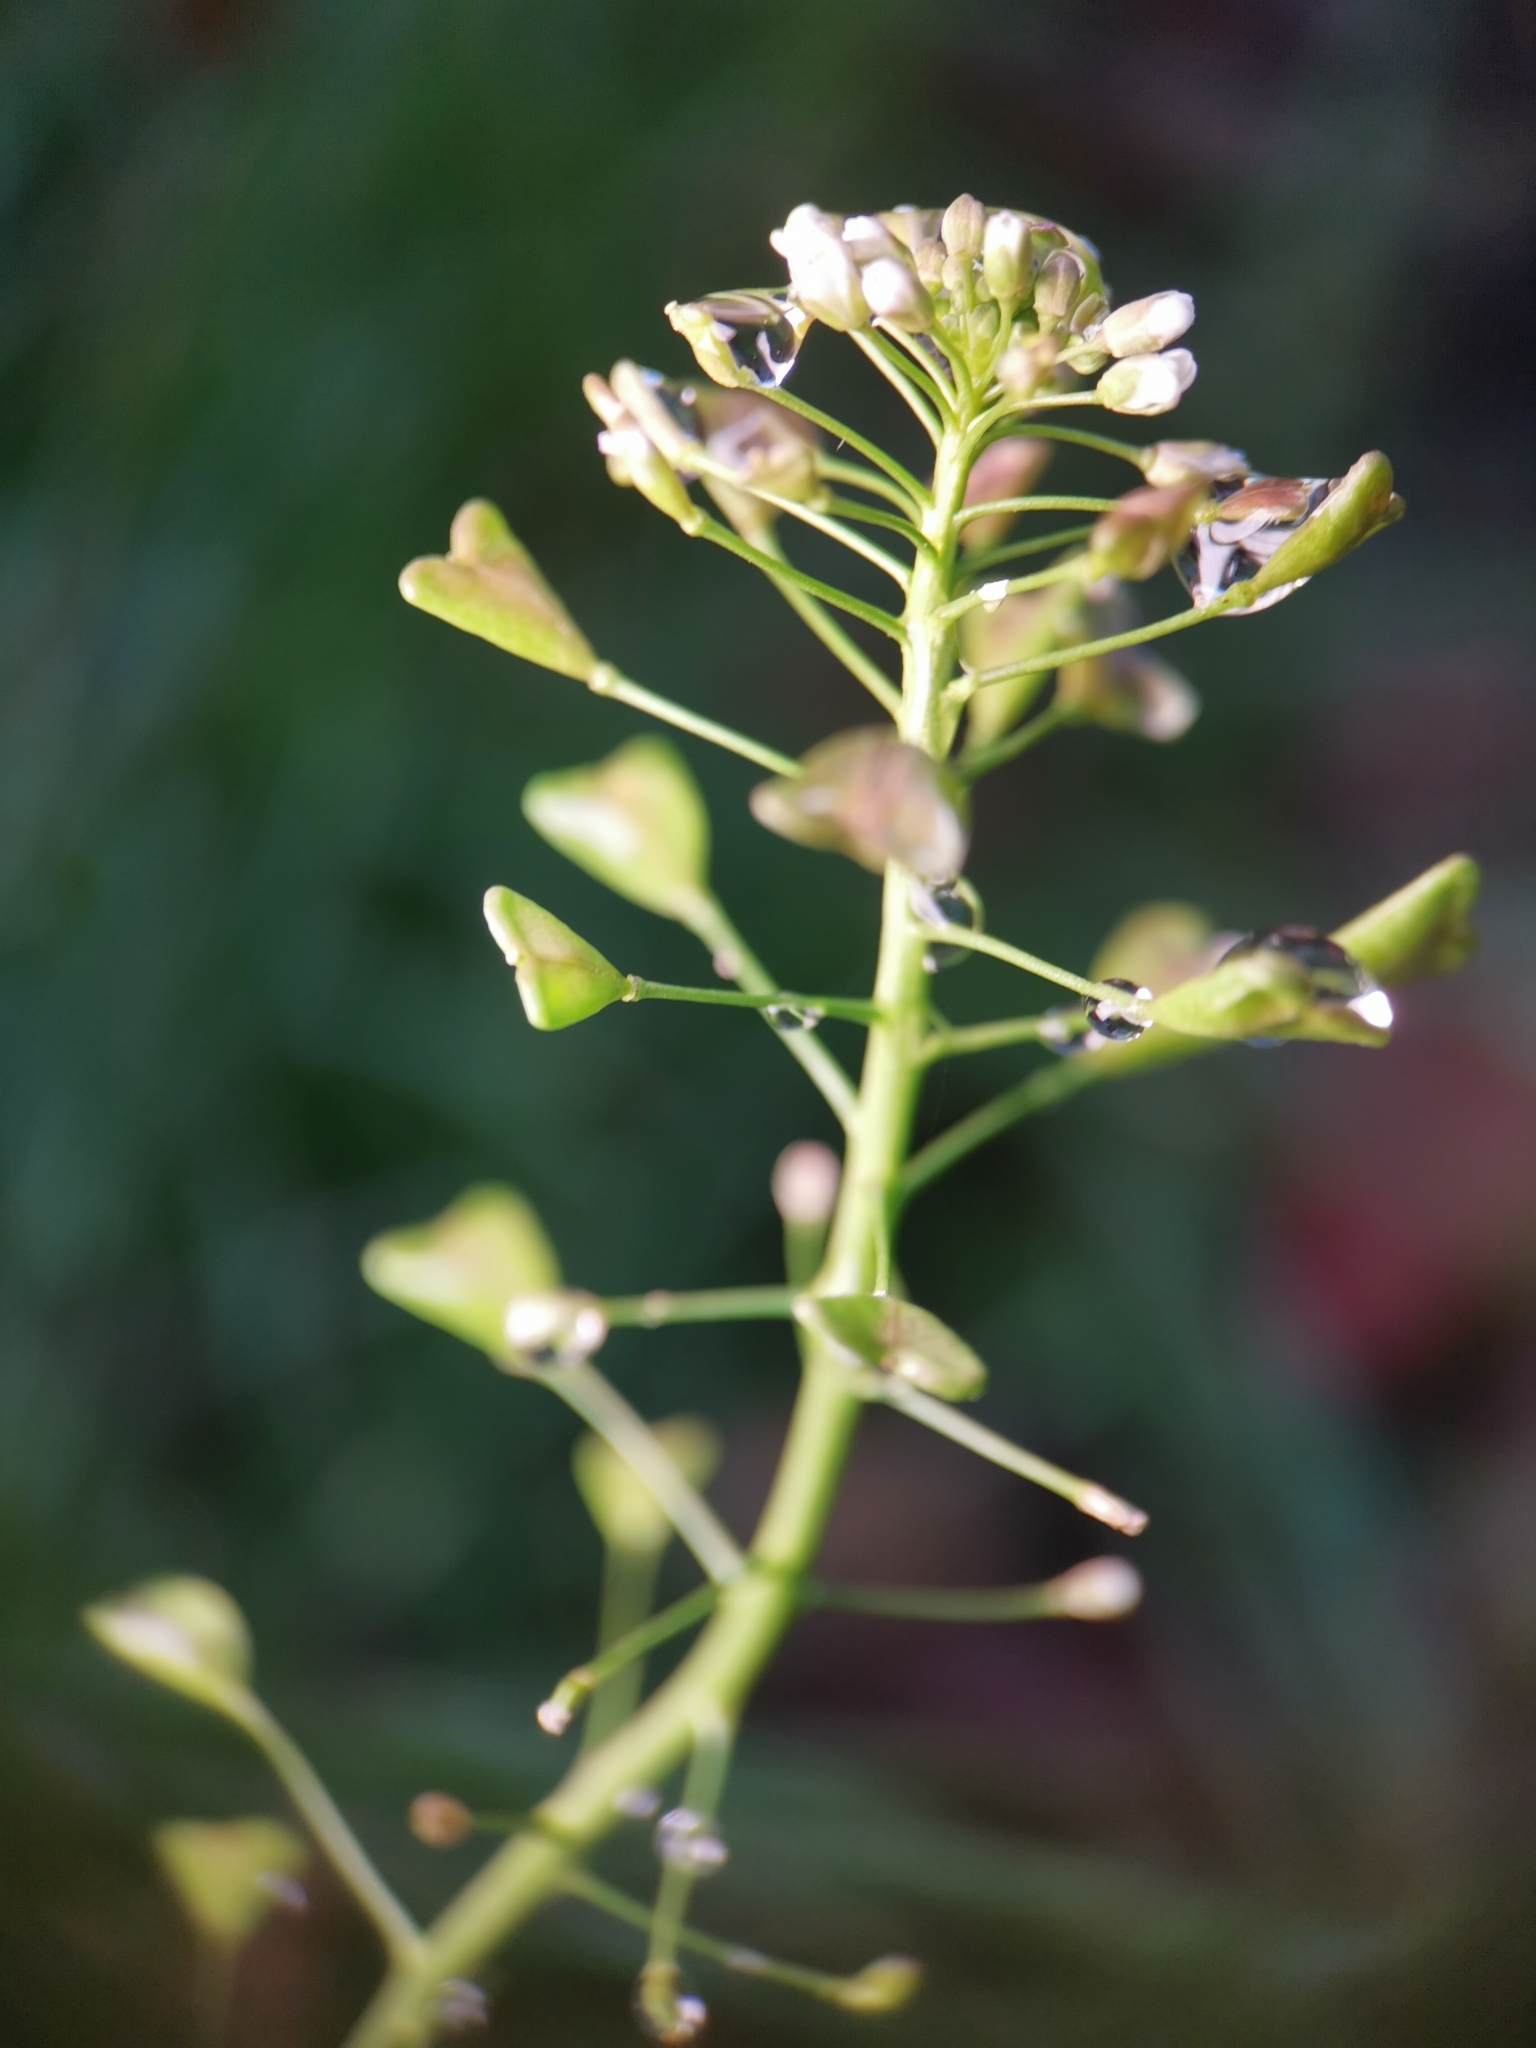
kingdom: Plantae
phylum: Tracheophyta
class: Magnoliopsida
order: Brassicales
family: Brassicaceae
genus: Capsella
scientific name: Capsella bursa-pastoris
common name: Shepherd's purse
